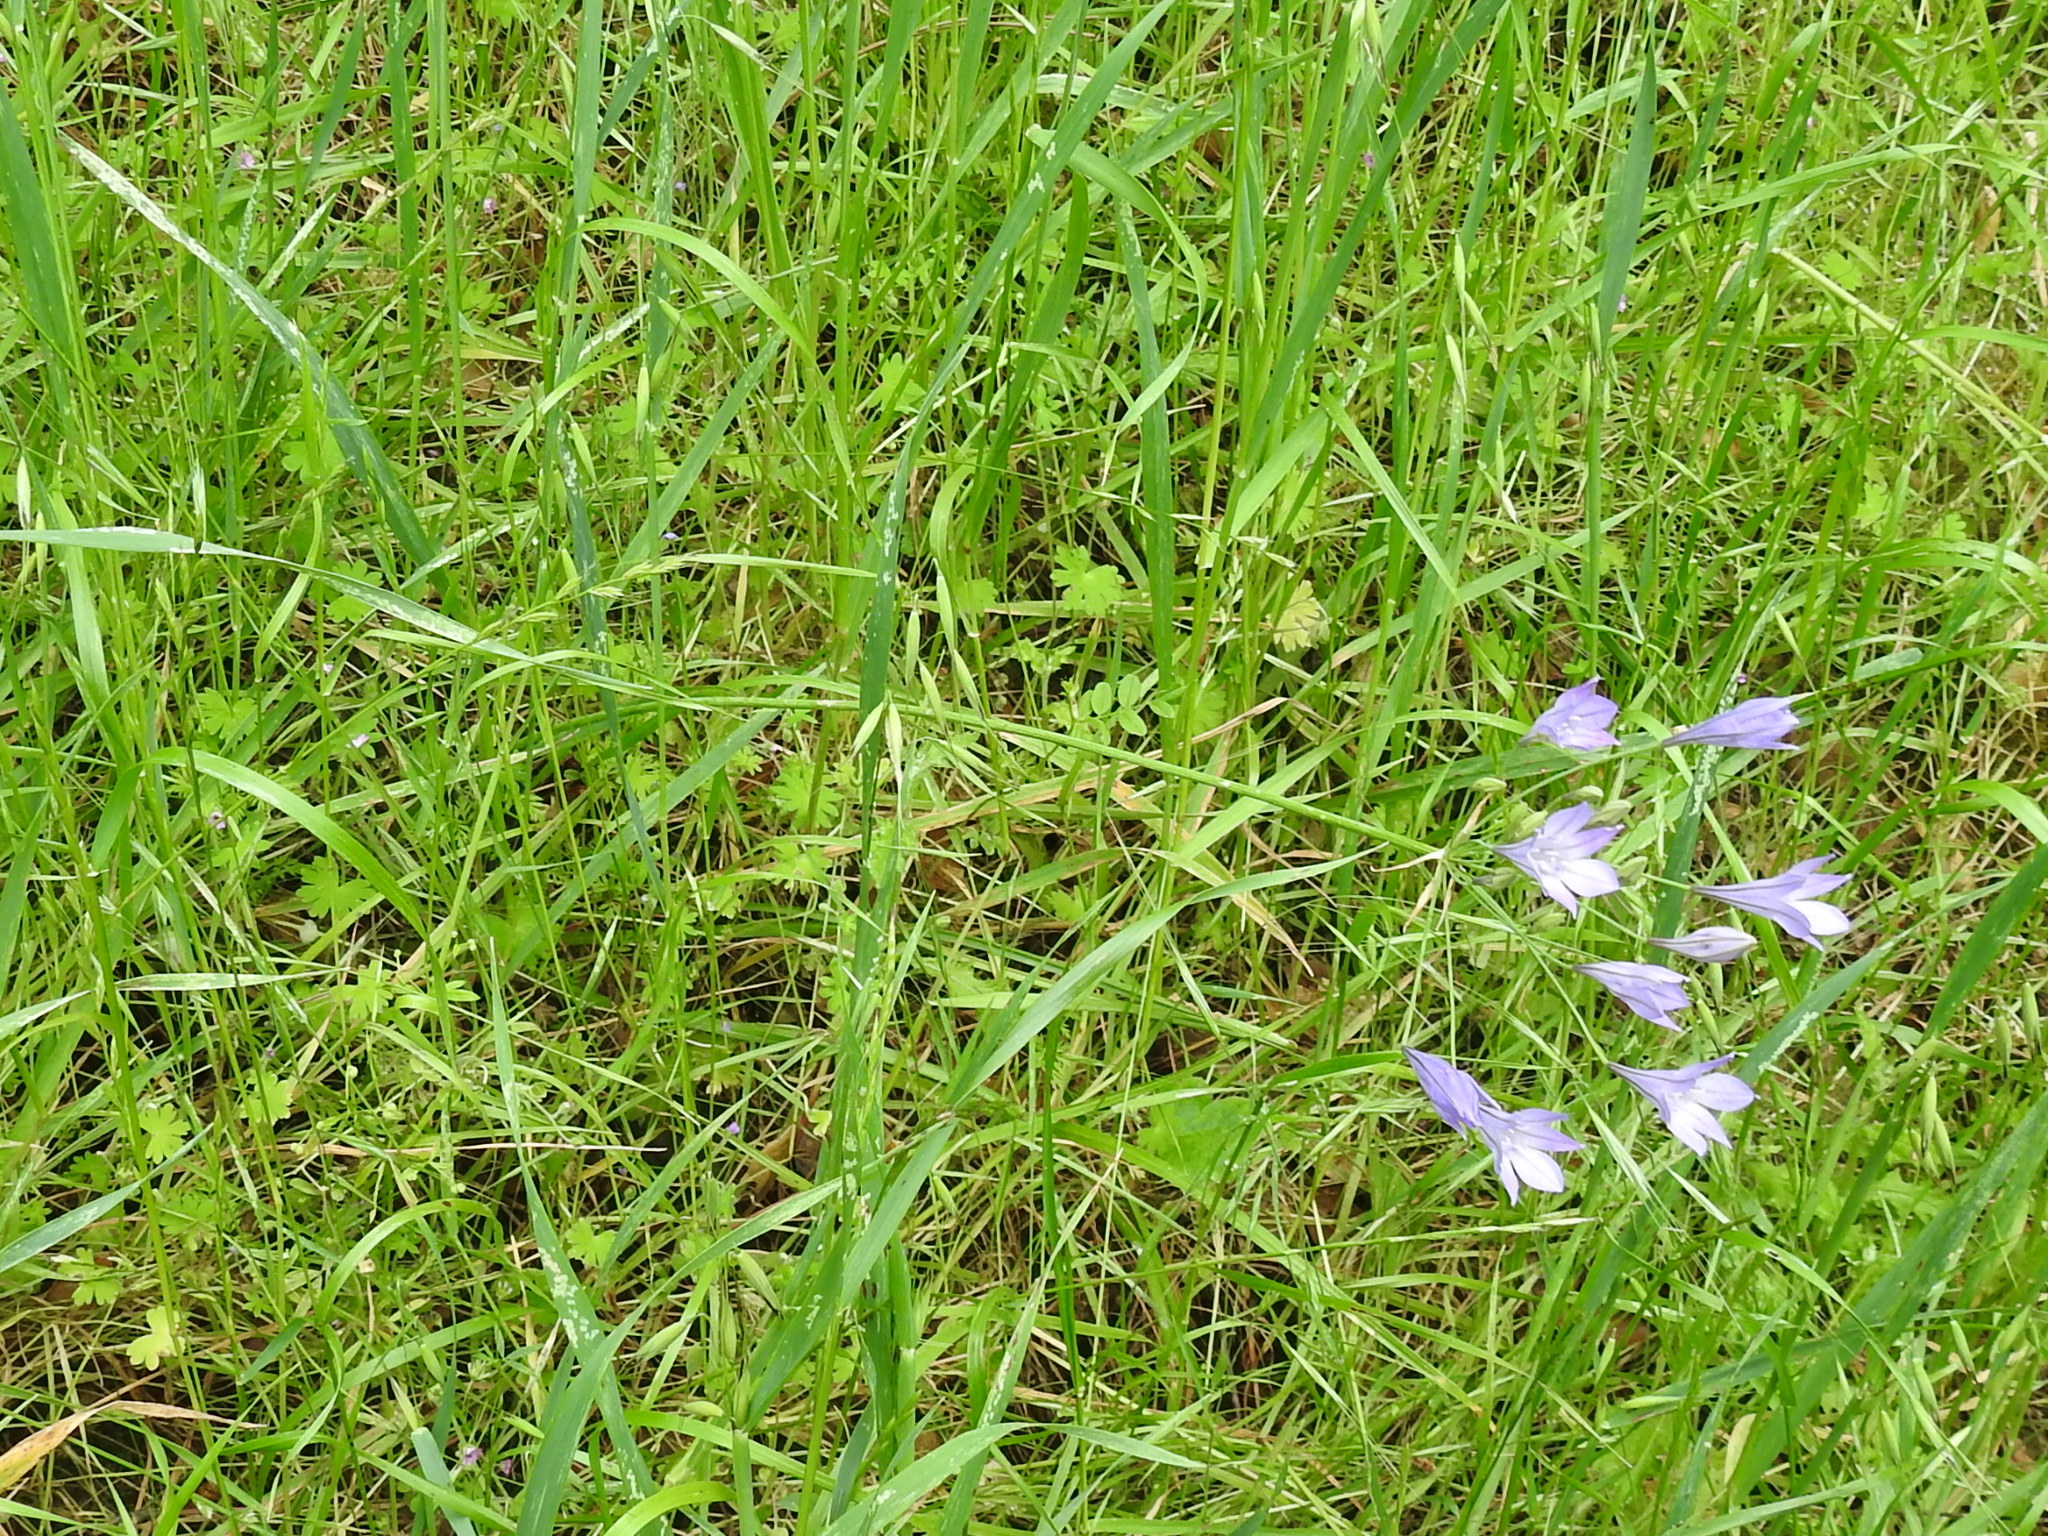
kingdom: Plantae
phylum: Tracheophyta
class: Liliopsida
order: Asparagales
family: Asparagaceae
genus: Triteleia
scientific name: Triteleia laxa
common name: Triplet-lily
